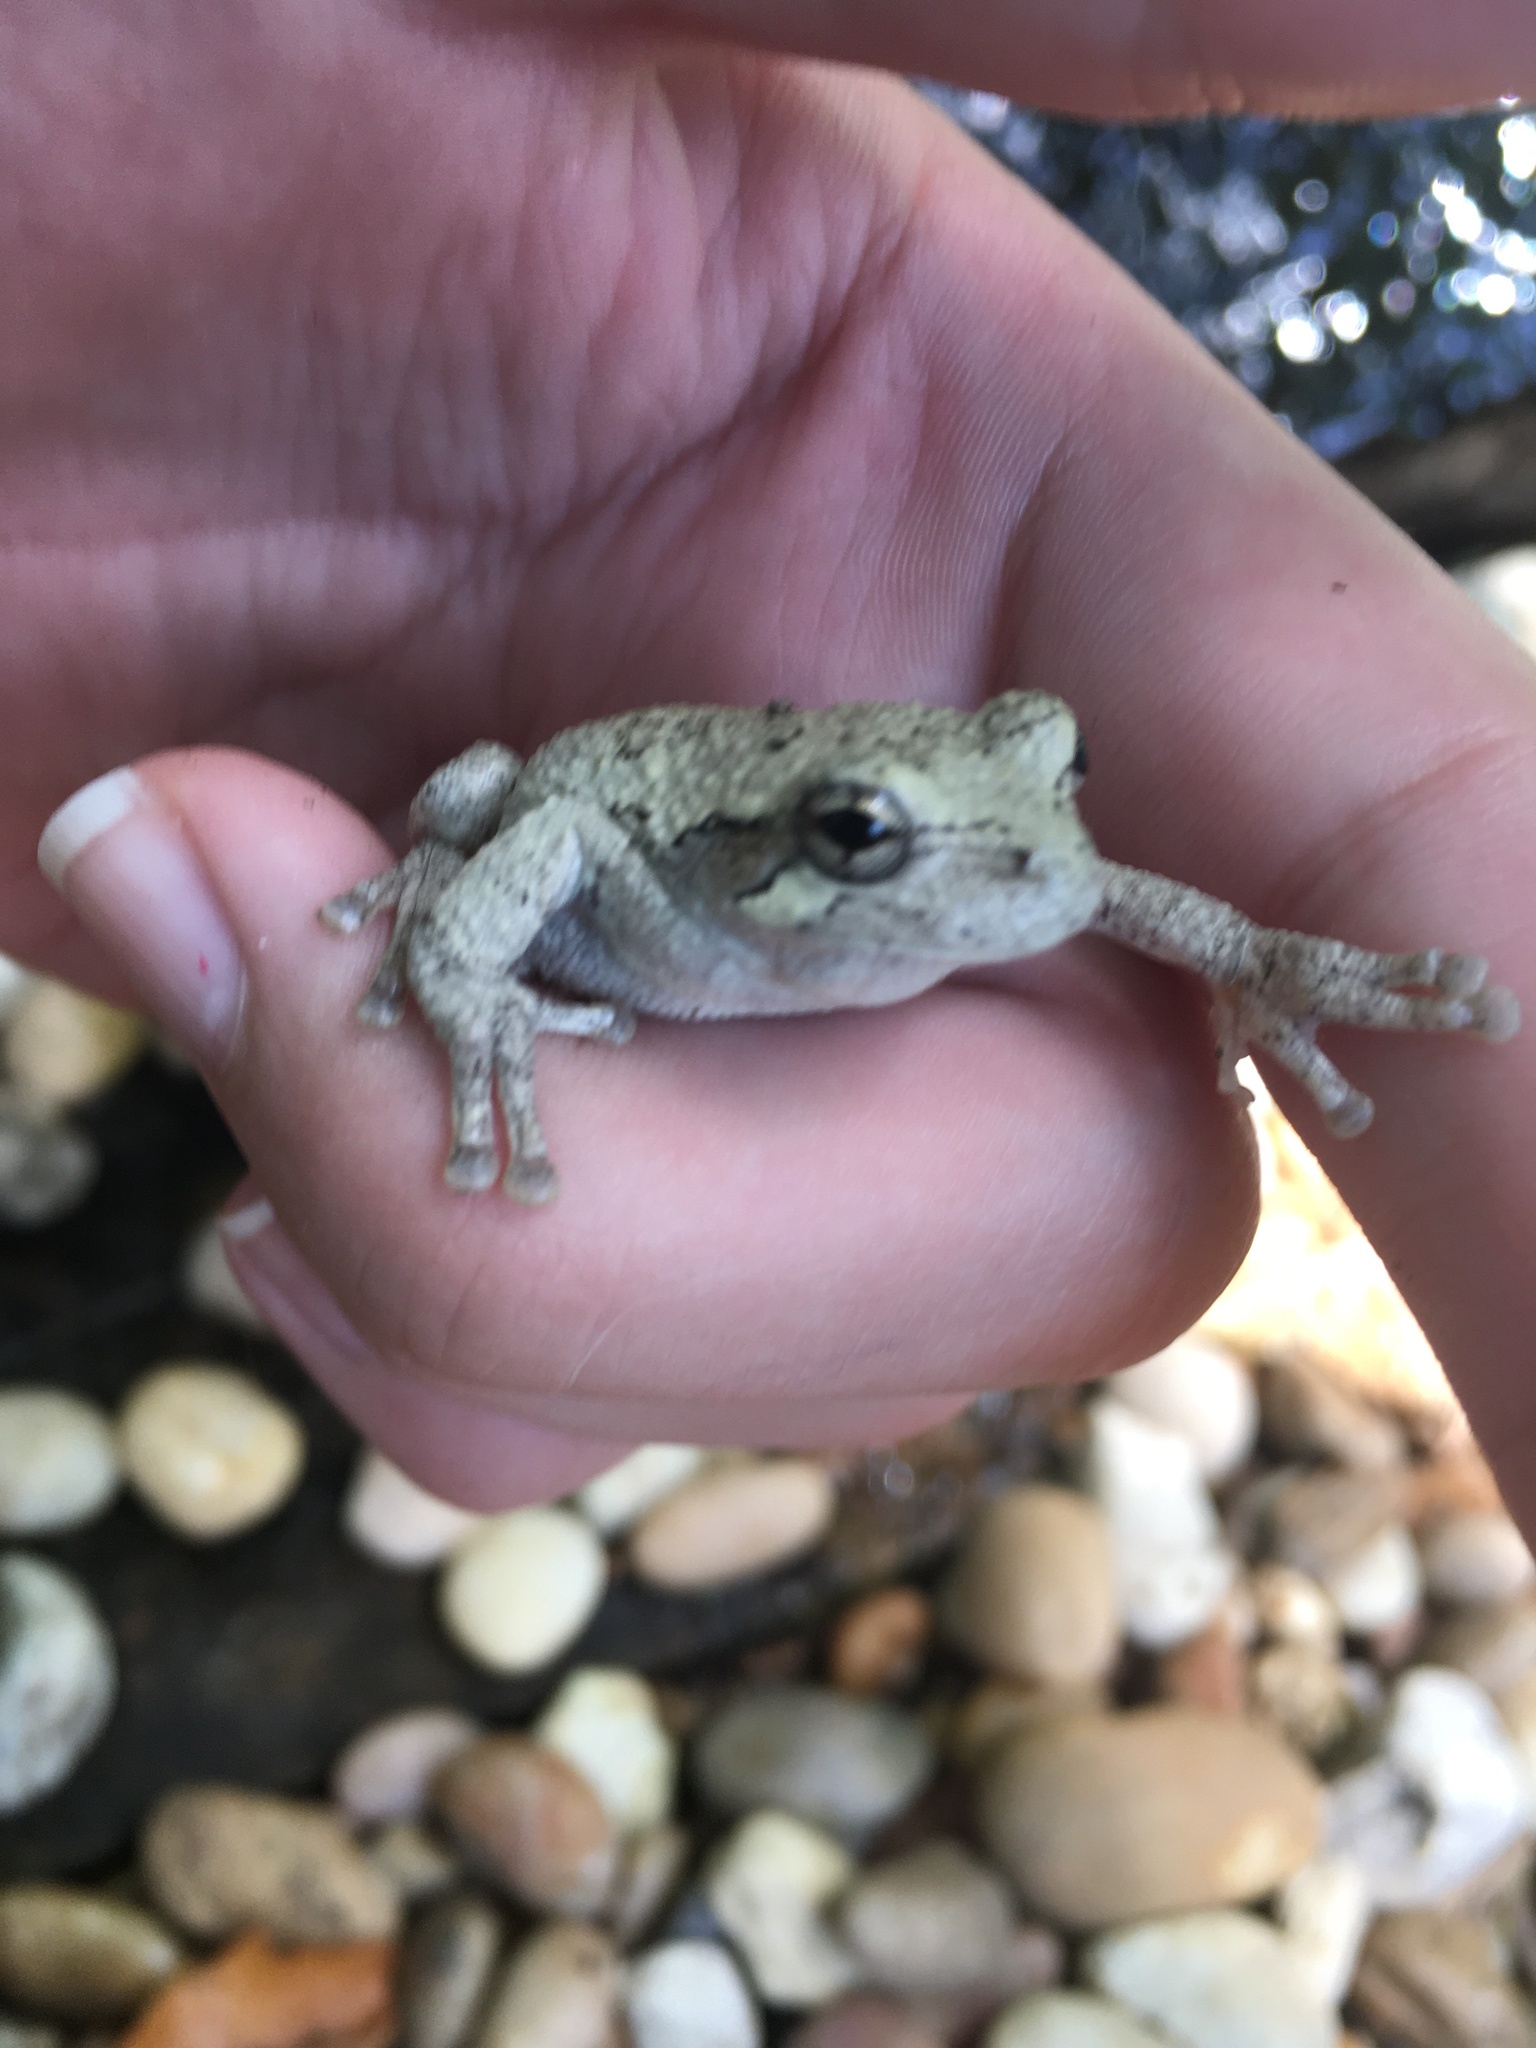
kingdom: Animalia
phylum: Chordata
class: Amphibia
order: Anura
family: Hylidae
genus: Hyla
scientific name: Hyla
